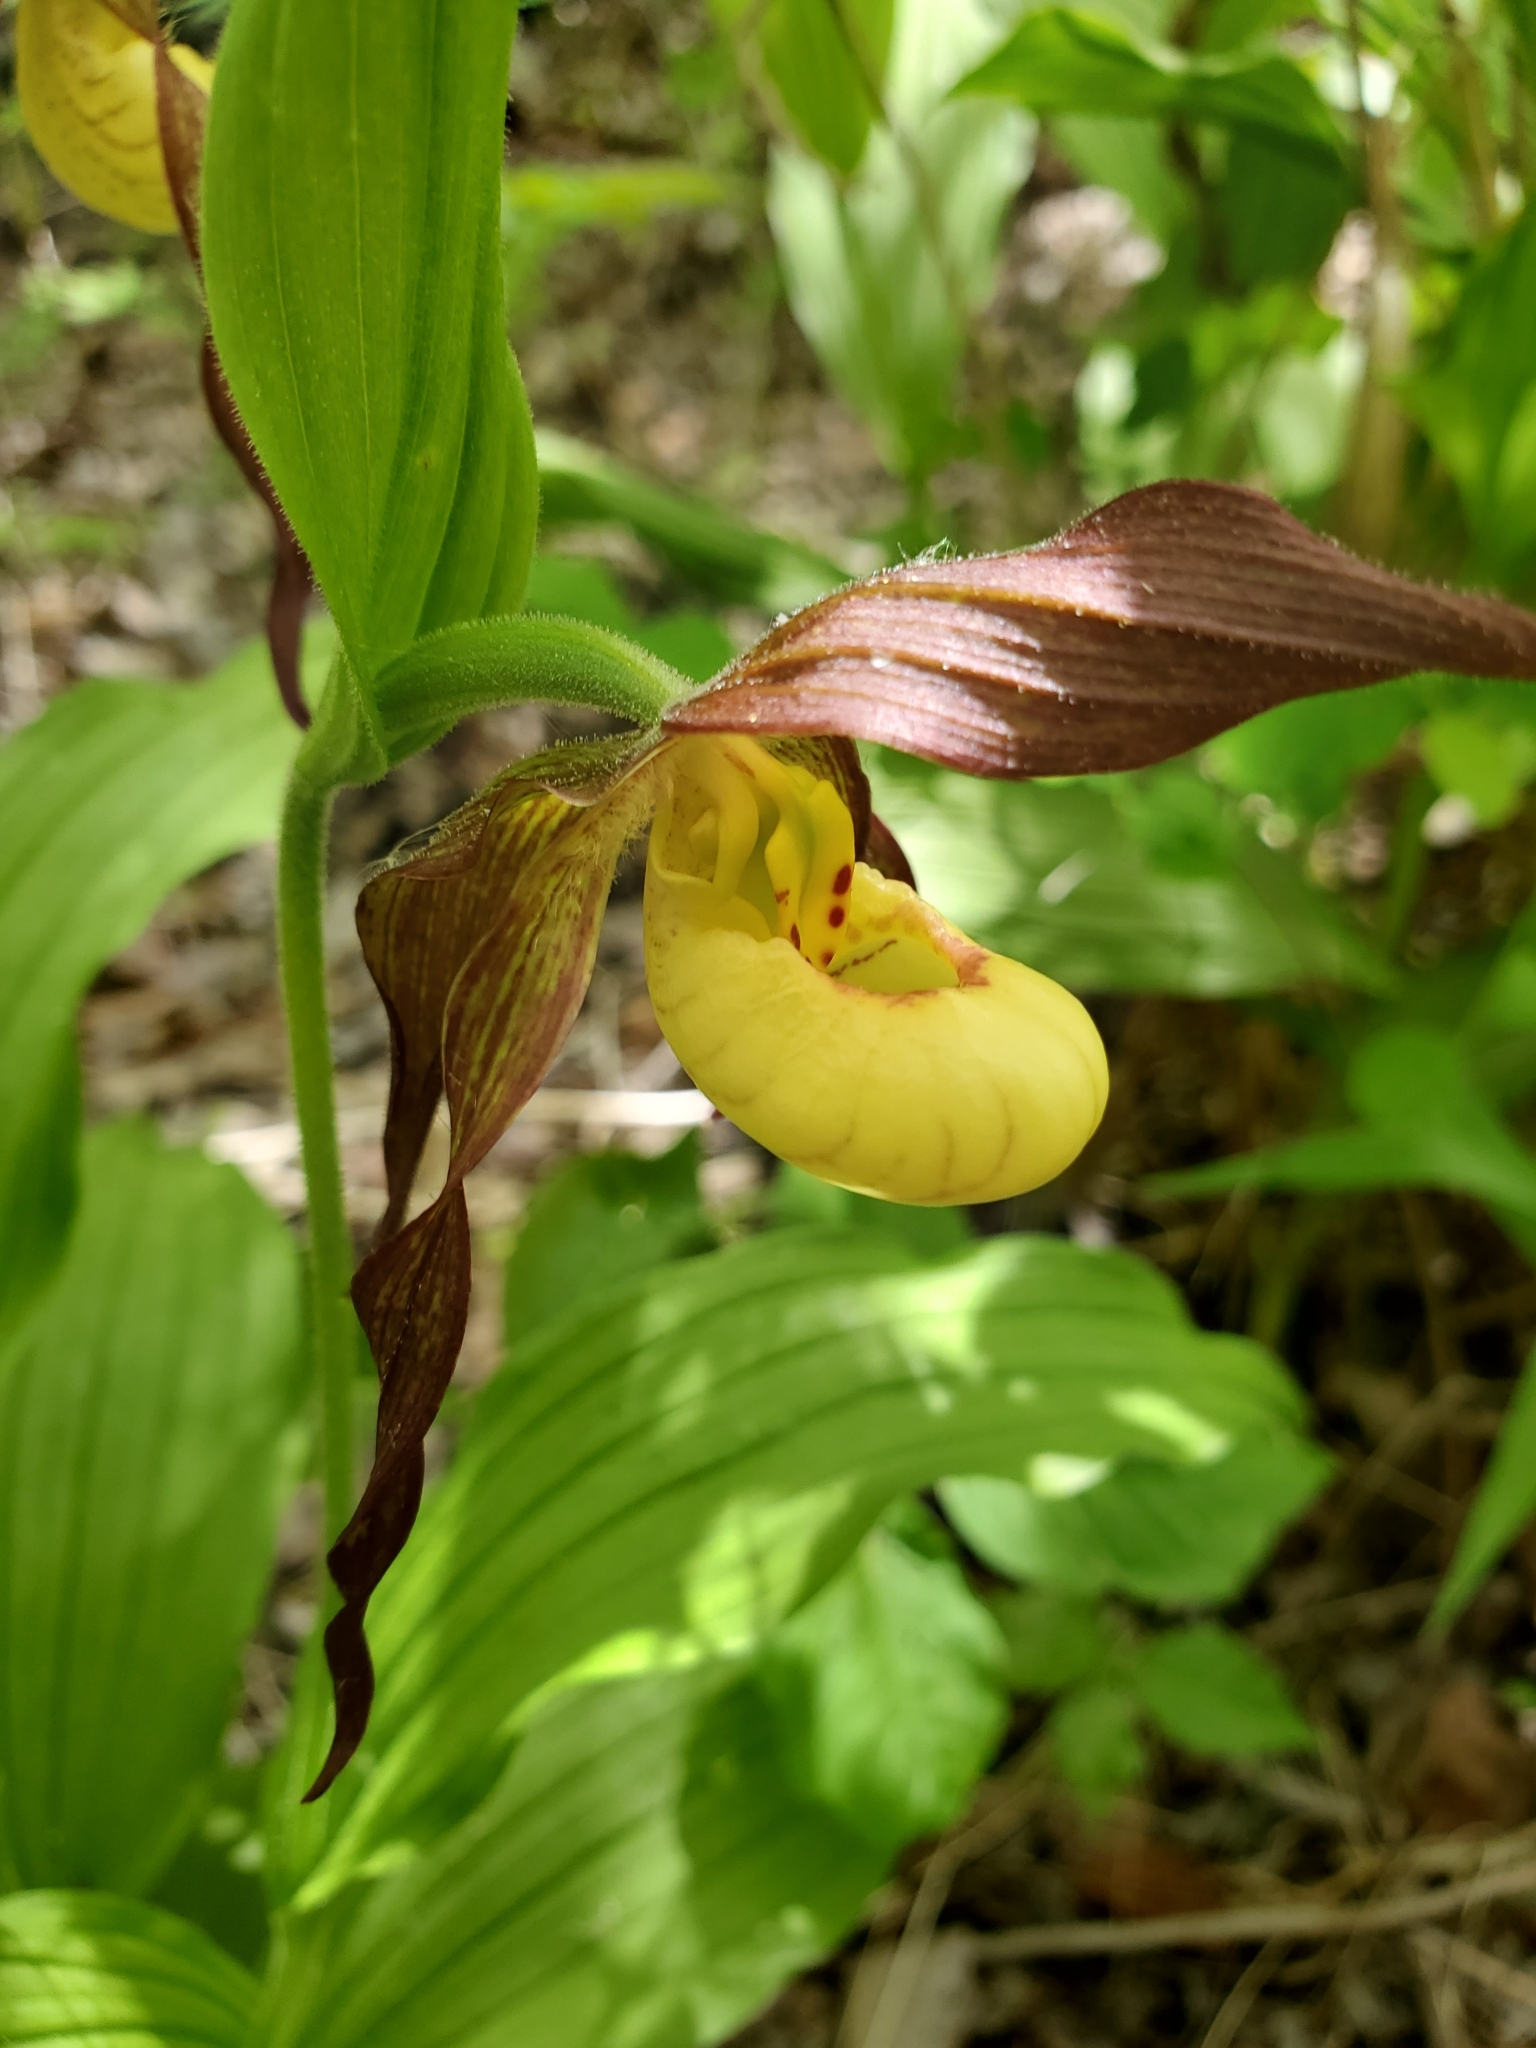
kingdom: Plantae
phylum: Tracheophyta
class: Liliopsida
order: Asparagales
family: Orchidaceae
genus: Cypripedium
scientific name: Cypripedium parviflorum
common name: American yellow lady's-slipper
